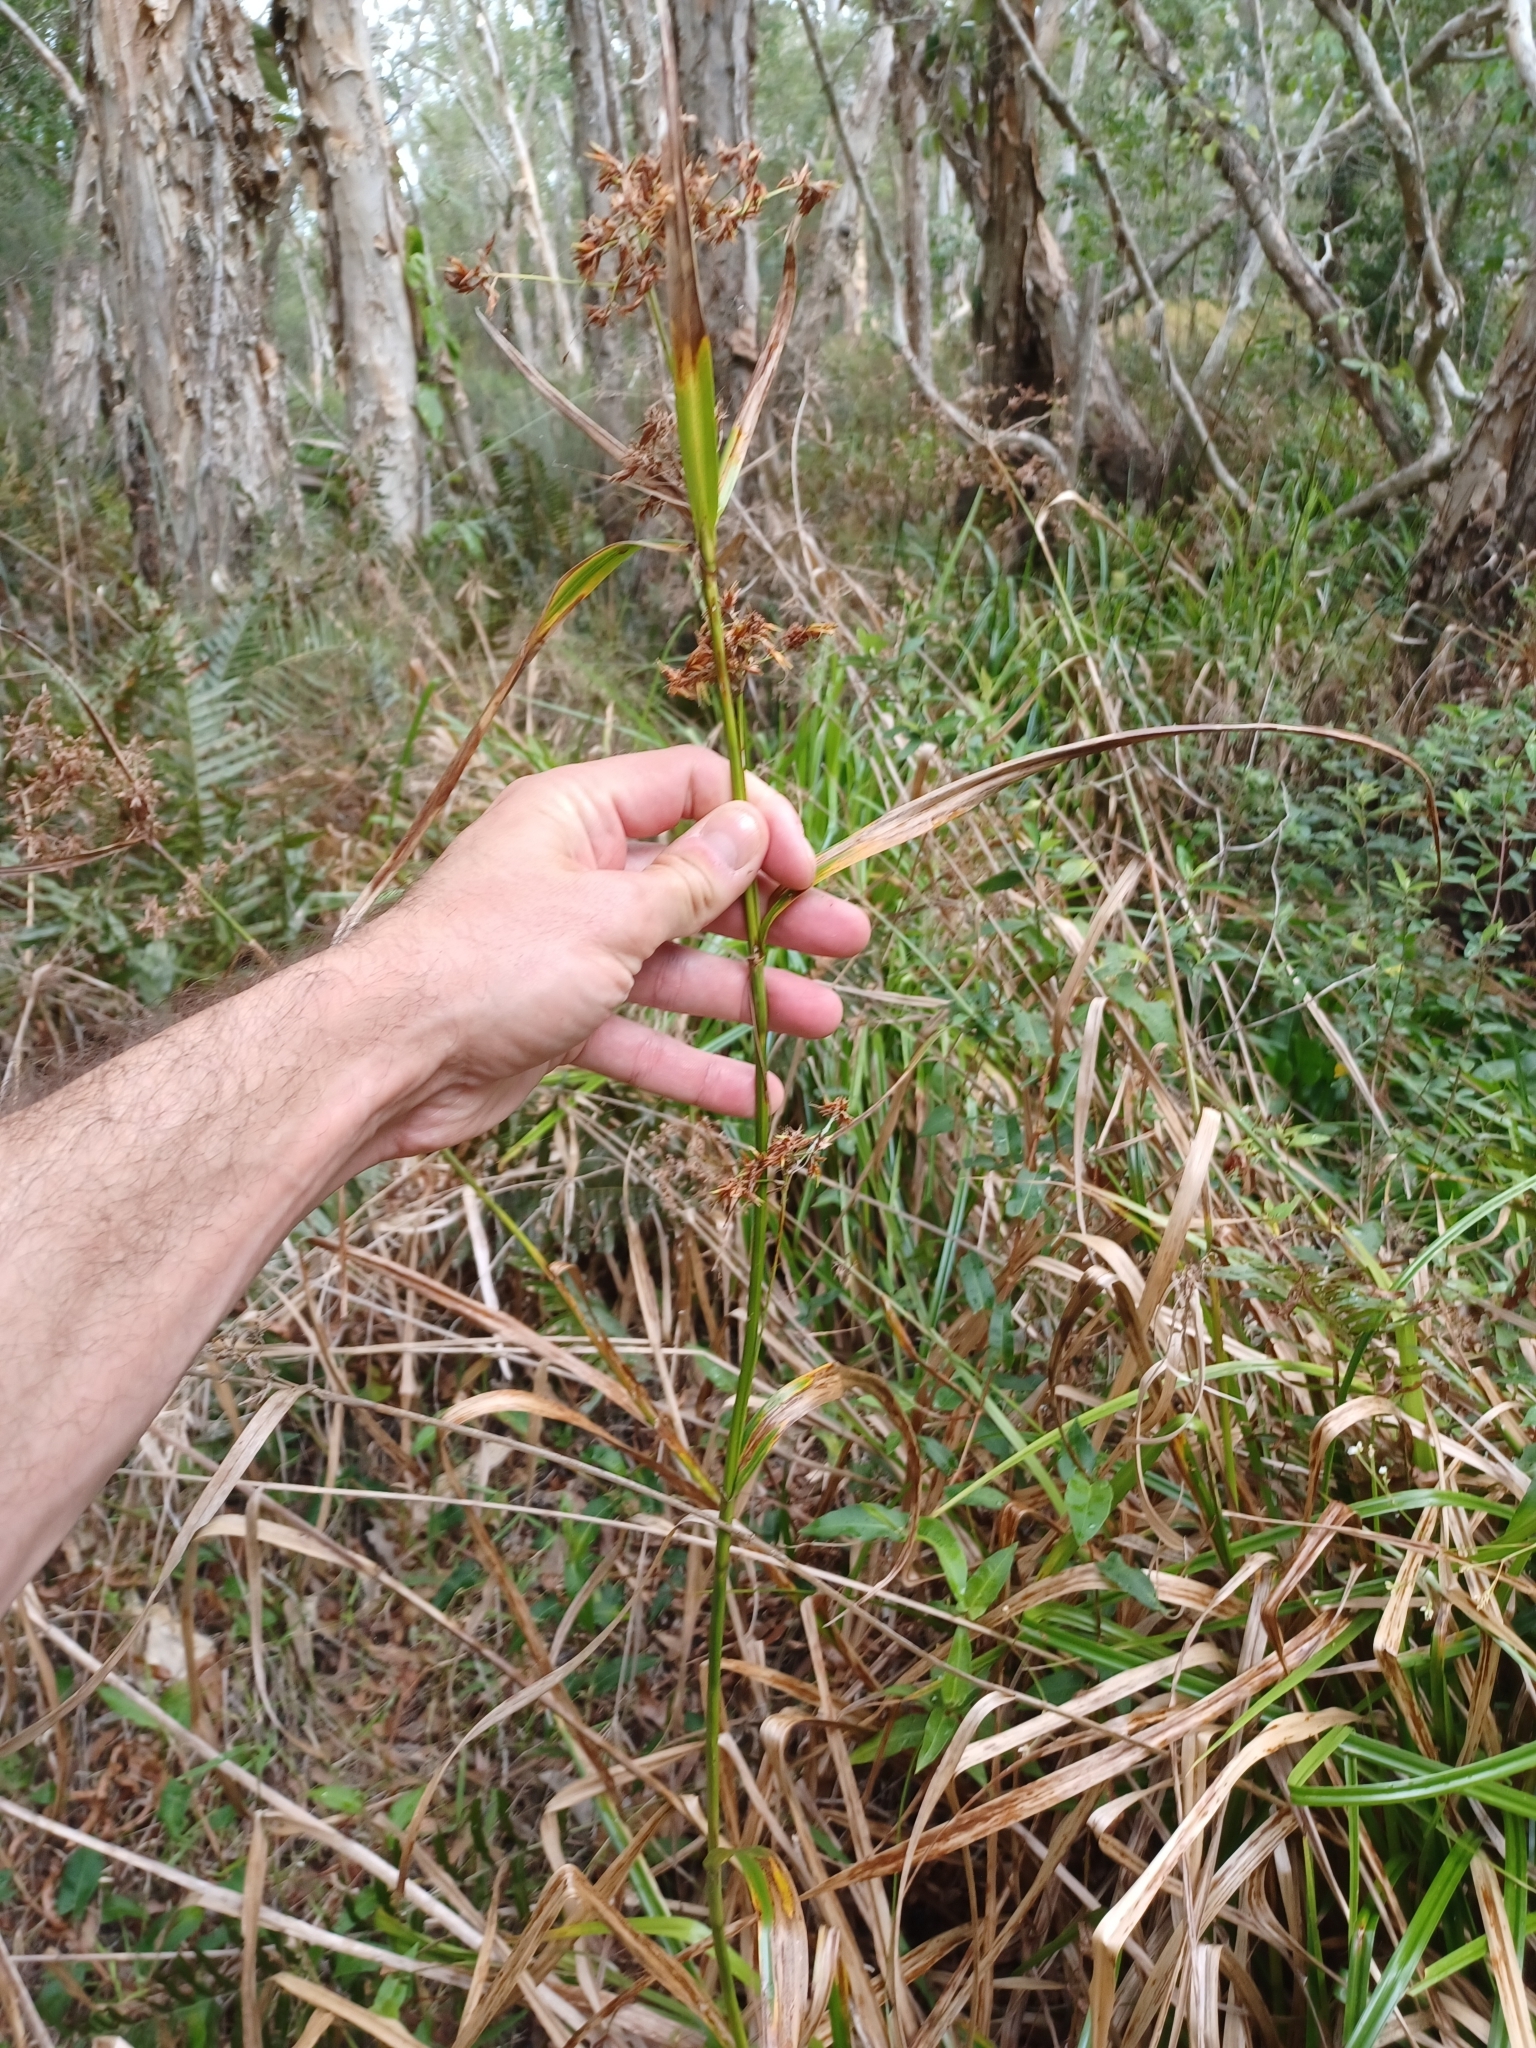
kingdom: Plantae
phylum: Tracheophyta
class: Liliopsida
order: Poales
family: Cyperaceae
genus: Rhynchospora
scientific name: Rhynchospora corymbosa
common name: Golden beak sedge
